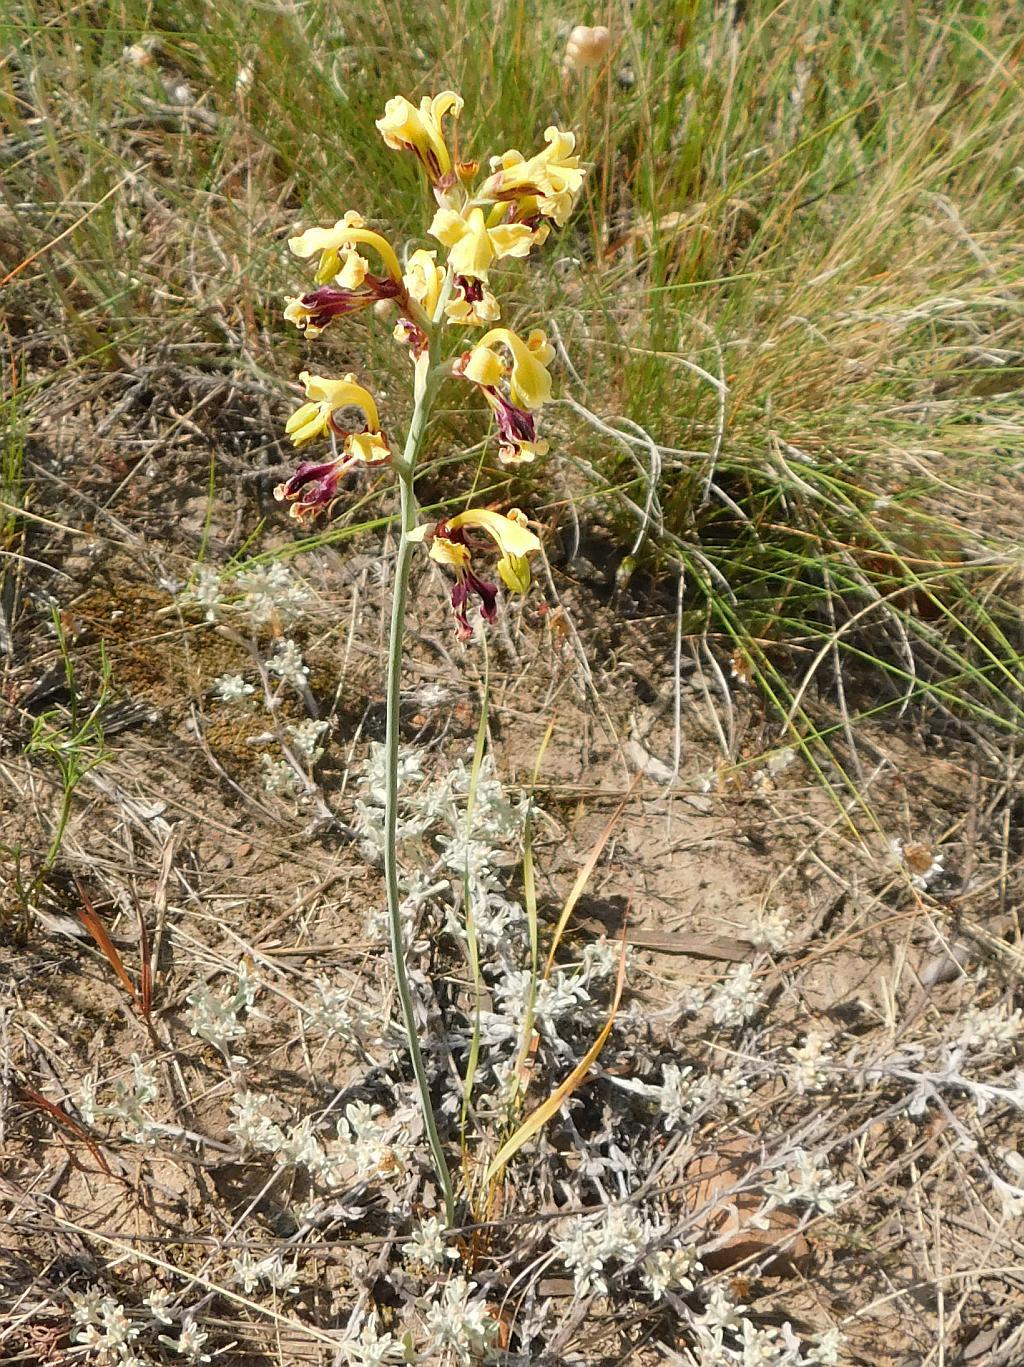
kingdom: Plantae
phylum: Tracheophyta
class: Liliopsida
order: Asparagales
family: Iridaceae
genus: Tritoniopsis
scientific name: Tritoniopsis parviflora
